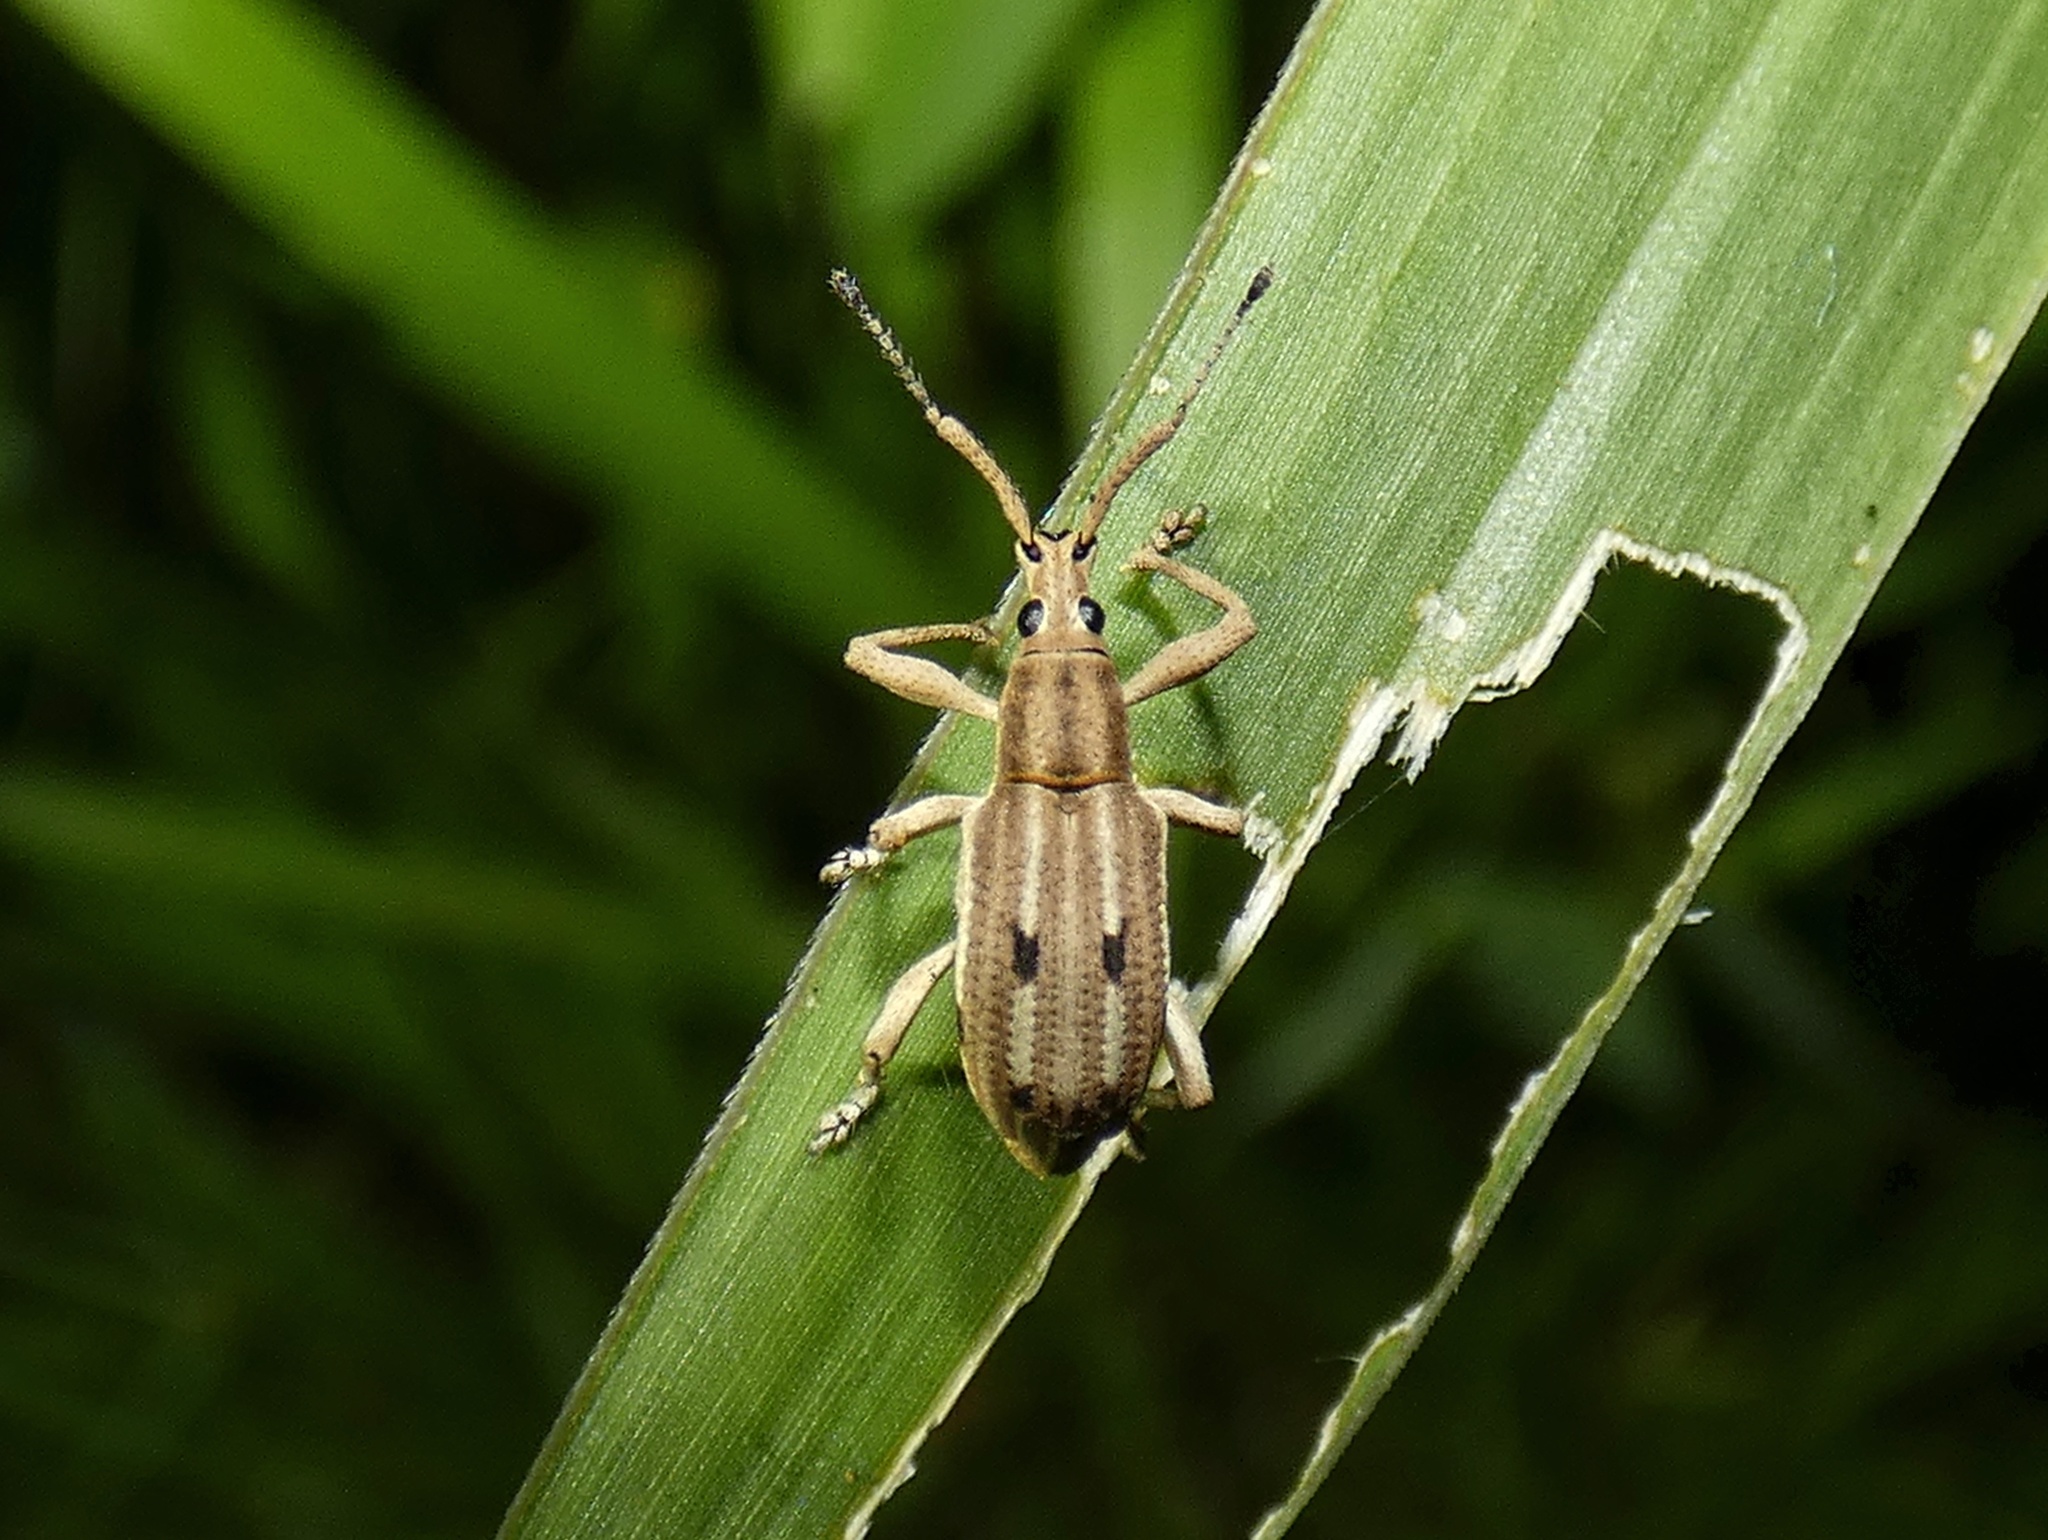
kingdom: Animalia
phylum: Arthropoda
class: Insecta
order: Coleoptera
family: Curculionidae
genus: Eustylus
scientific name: Eustylus sexguttatus
